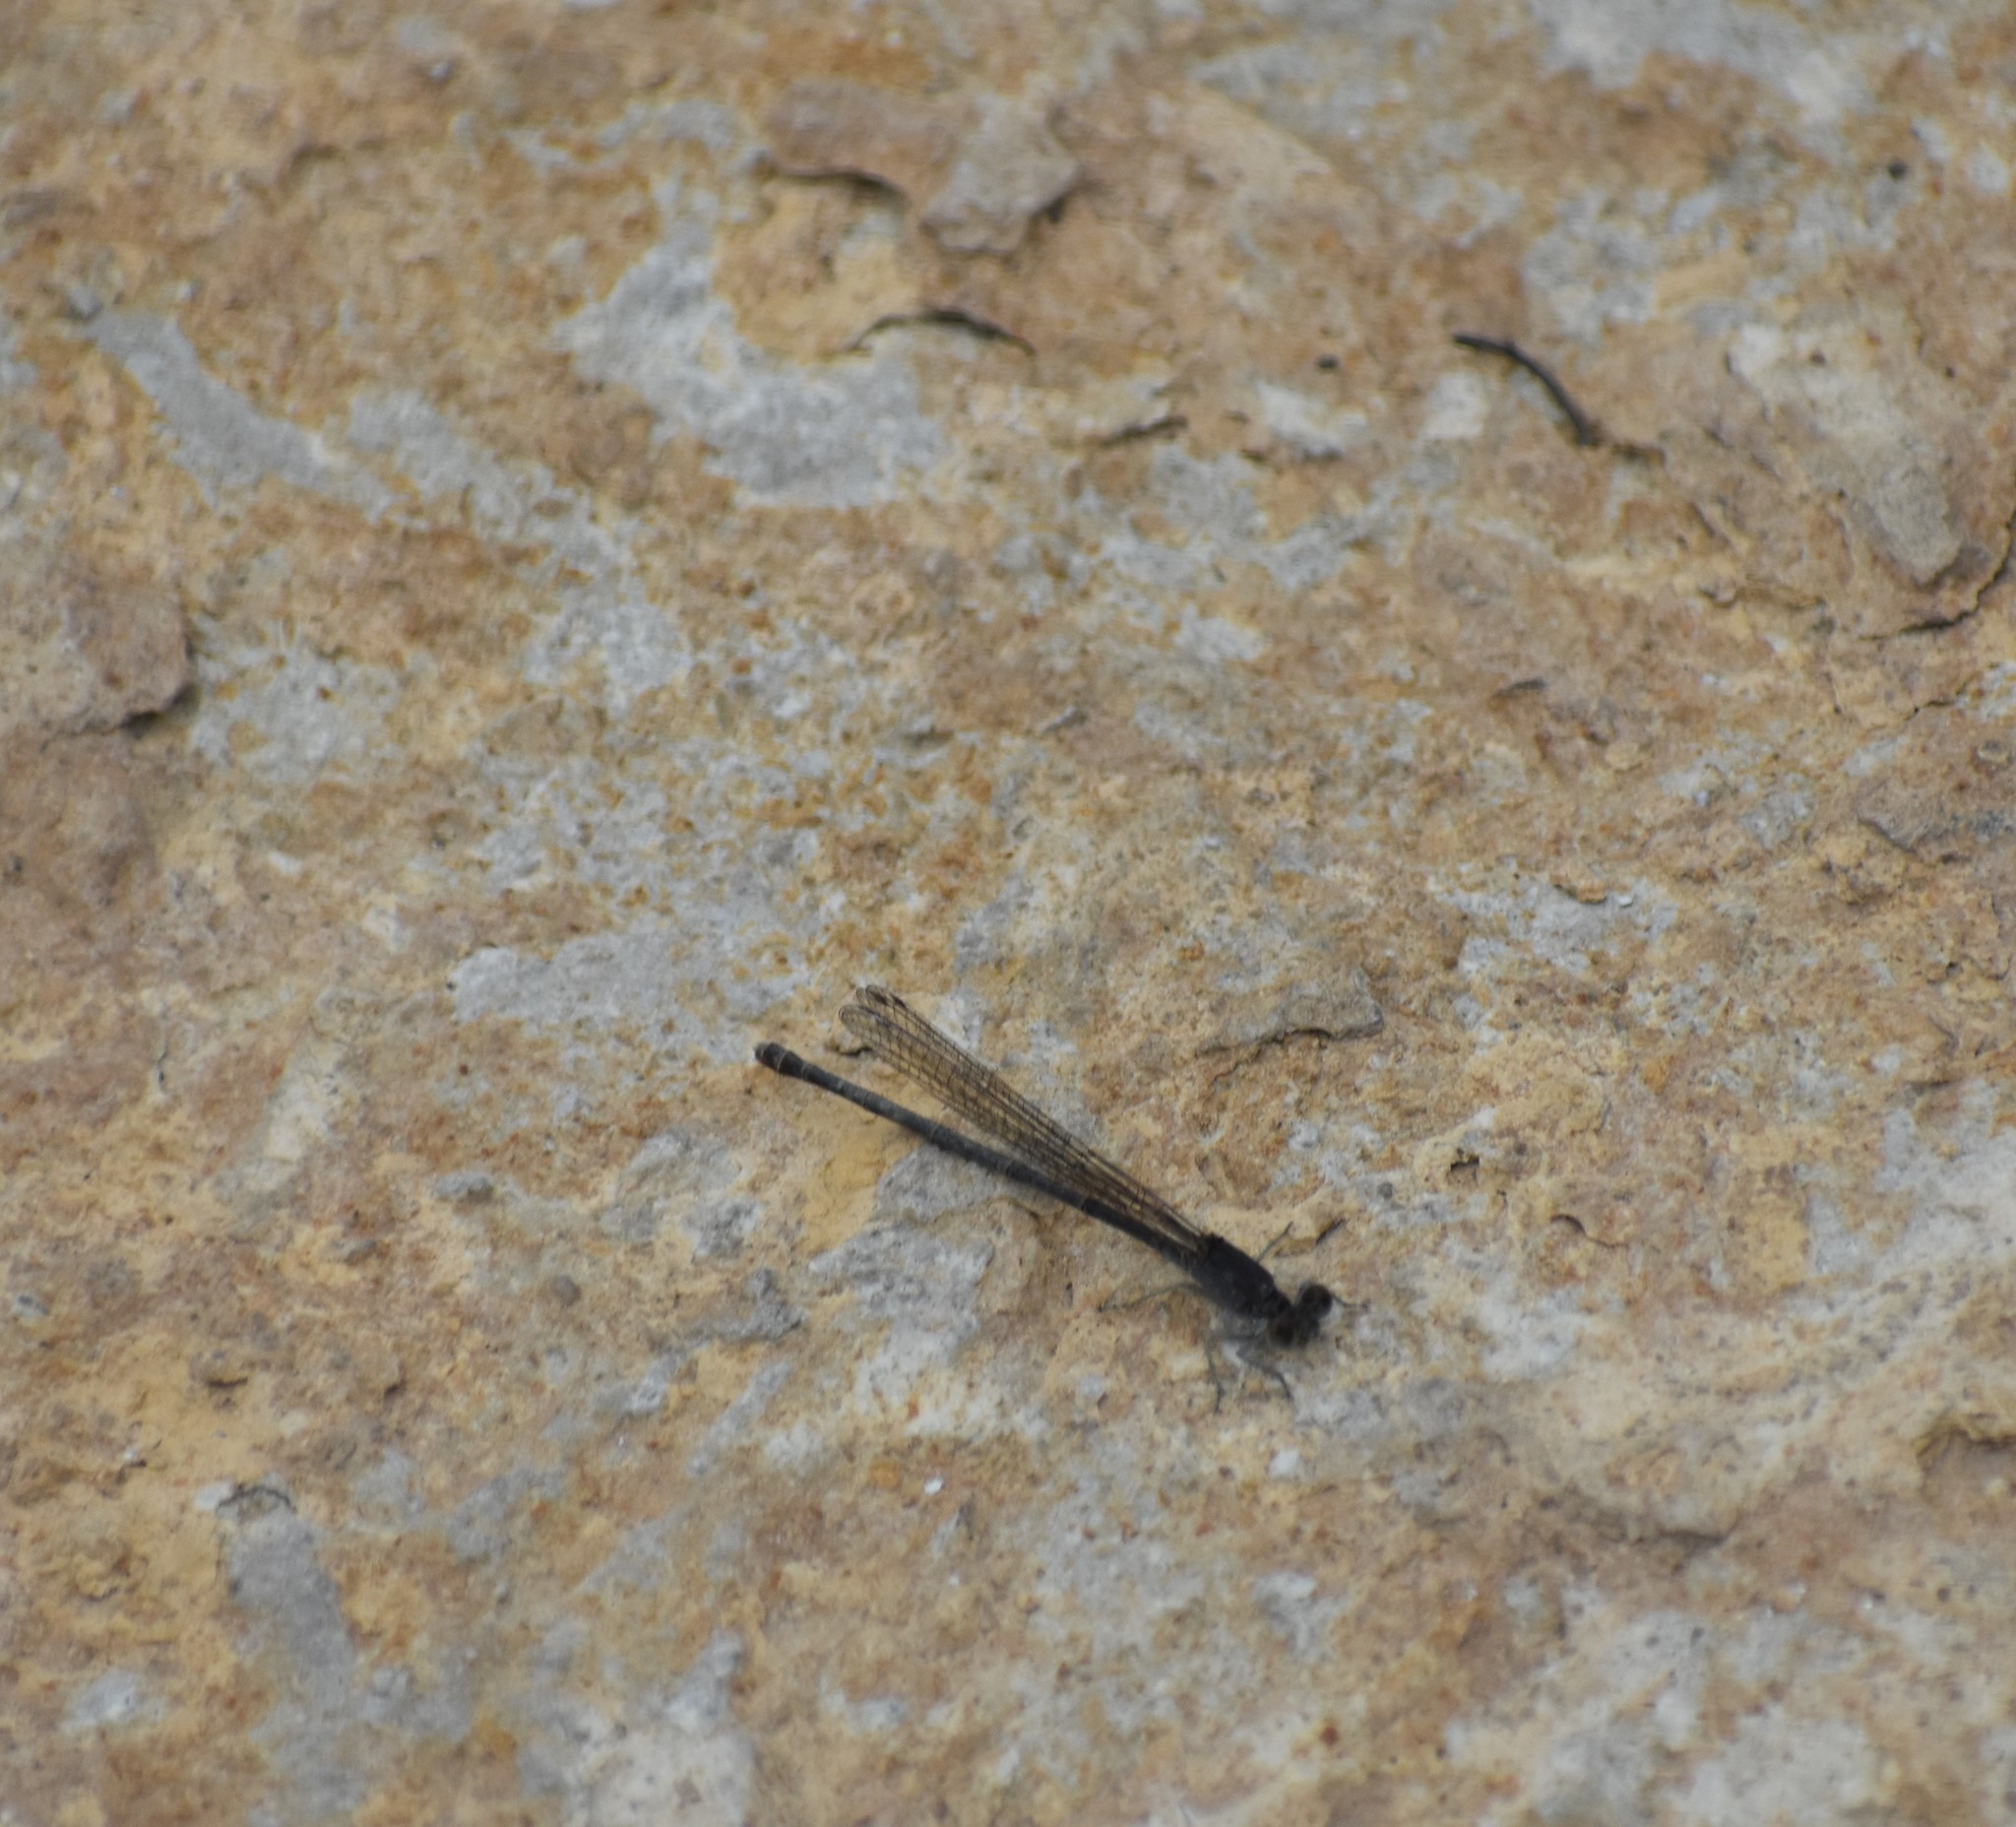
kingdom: Animalia
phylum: Arthropoda
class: Insecta
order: Odonata
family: Coenagrionidae
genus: Argia
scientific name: Argia translata
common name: Dusky dancer
